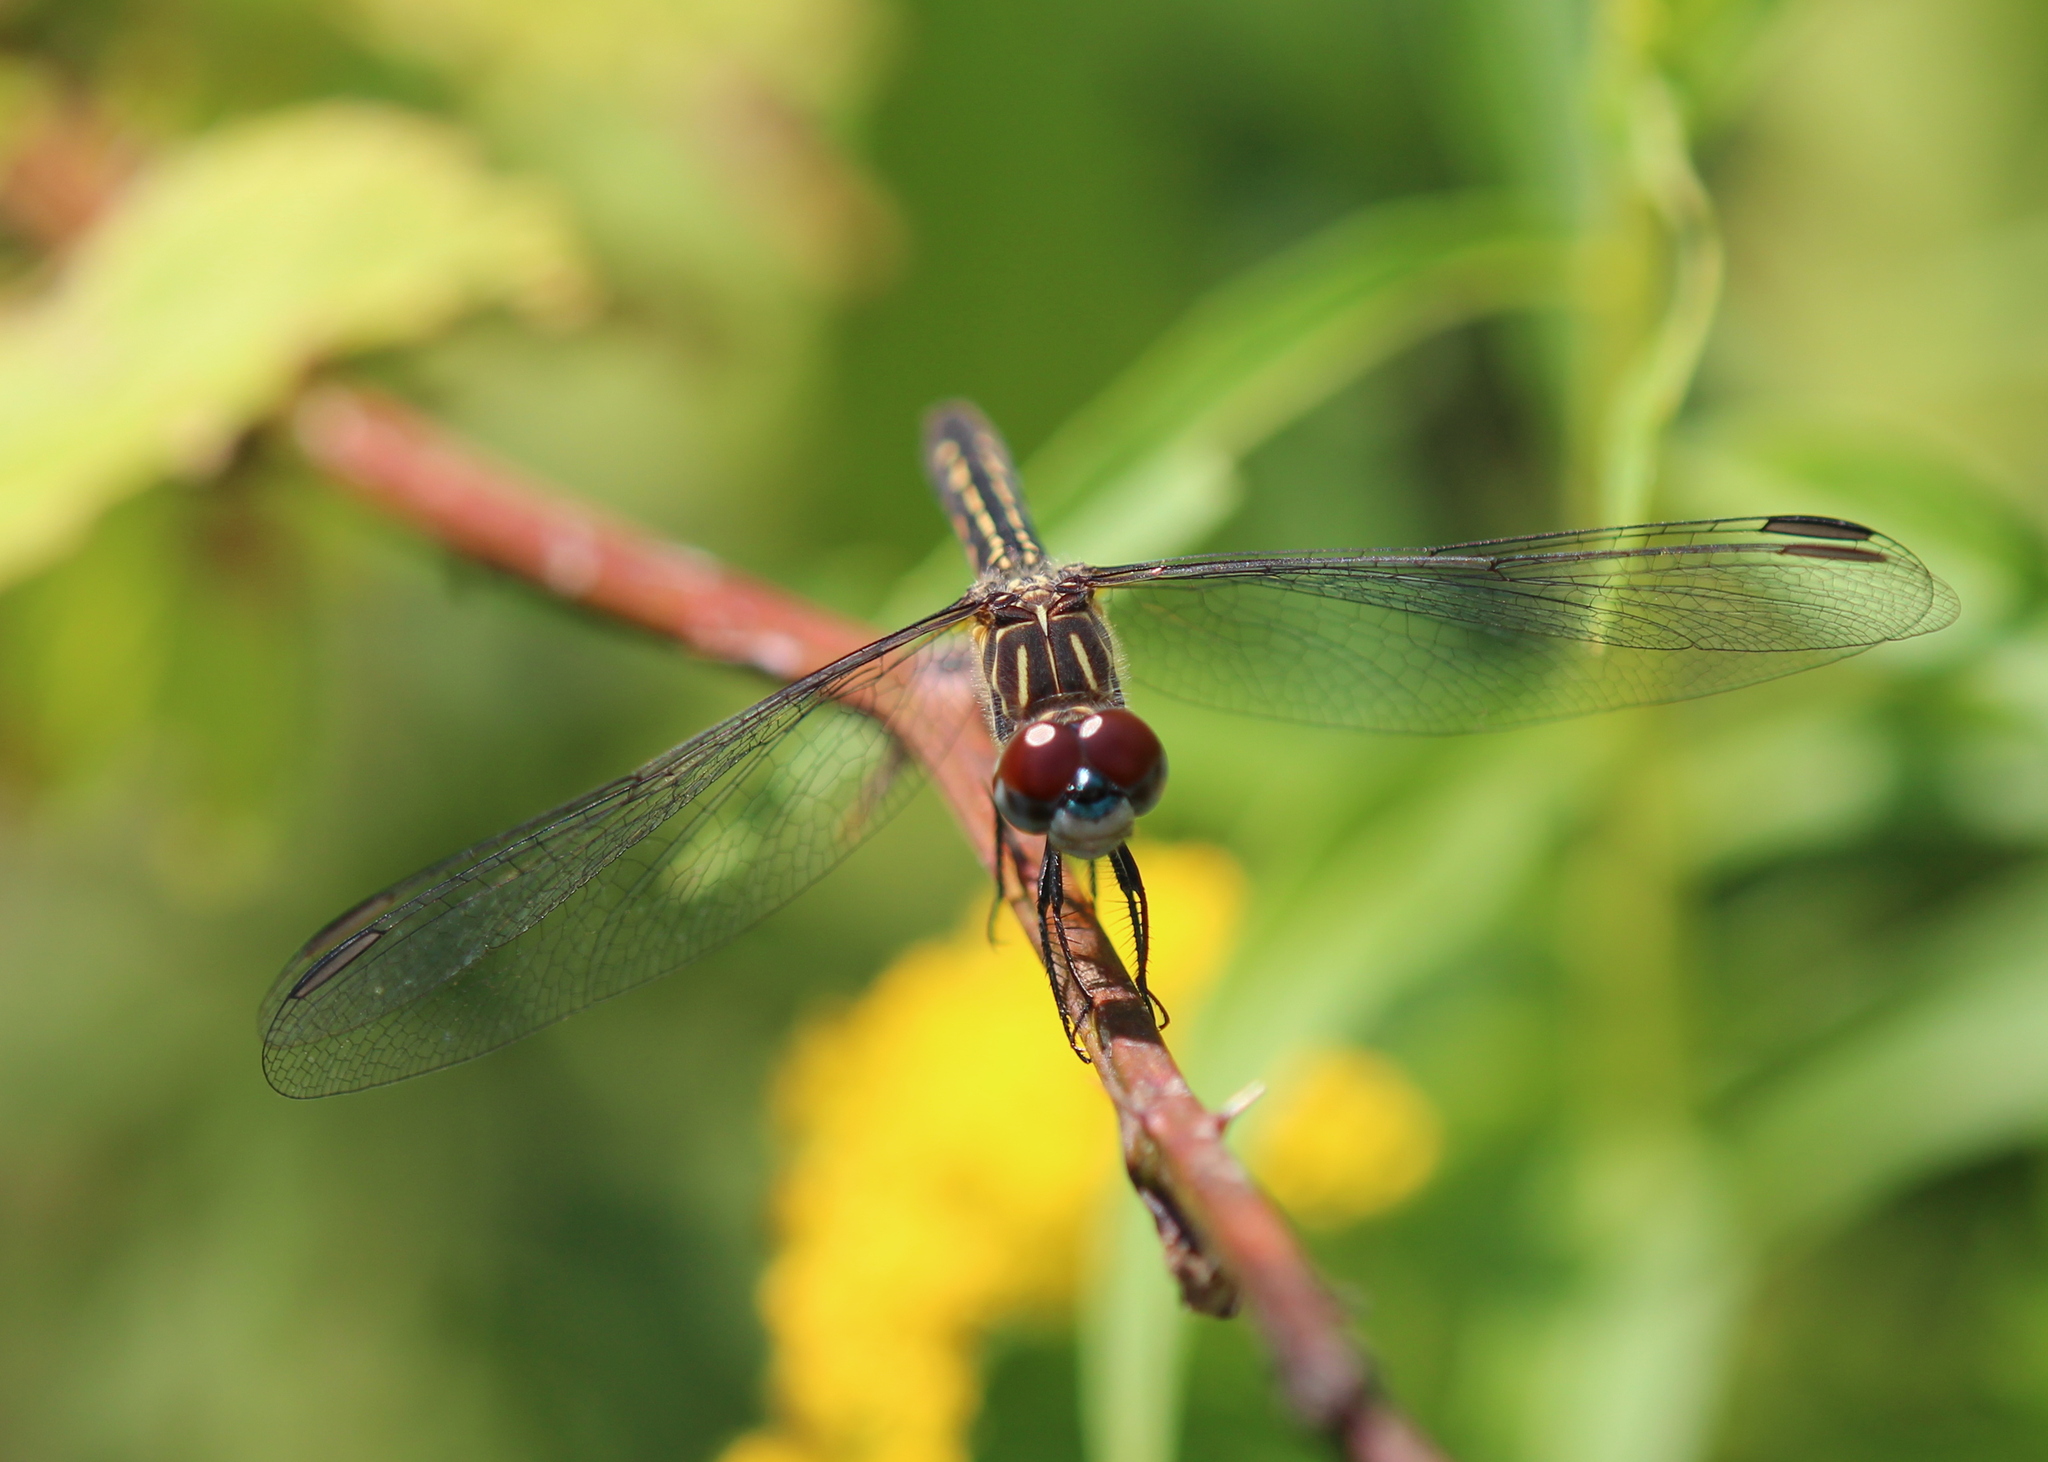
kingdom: Animalia
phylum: Arthropoda
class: Insecta
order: Odonata
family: Libellulidae
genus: Pachydiplax
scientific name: Pachydiplax longipennis
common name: Blue dasher
